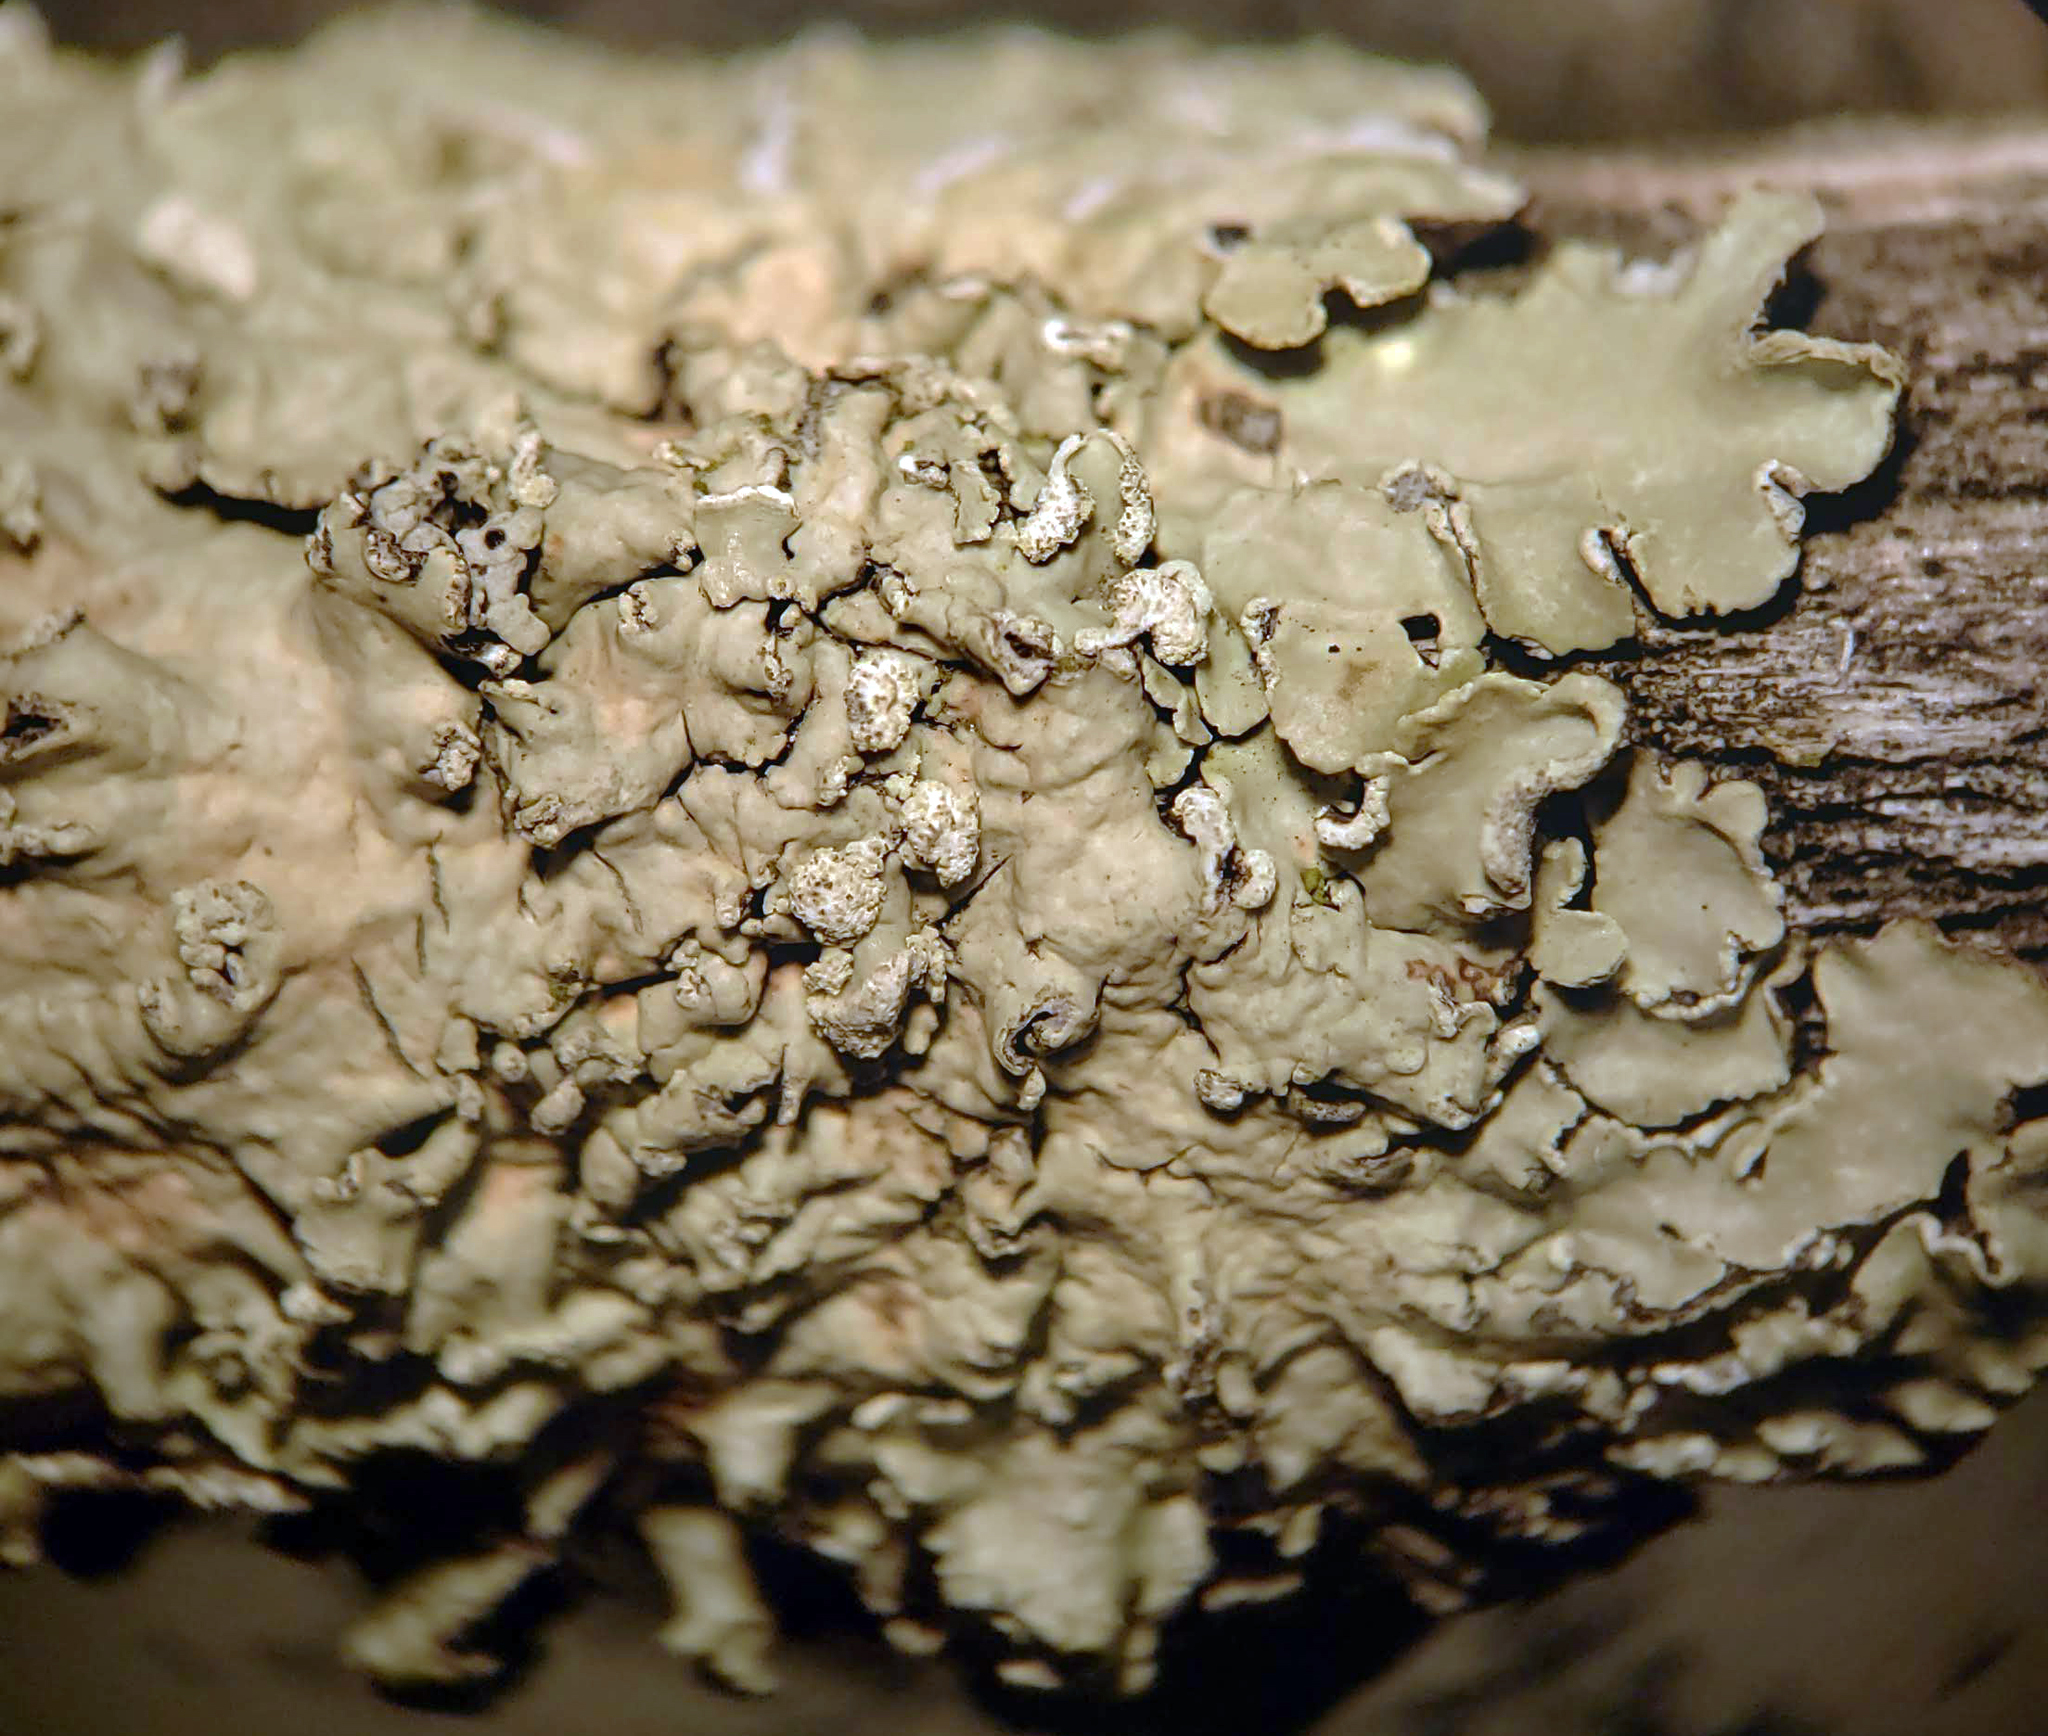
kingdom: Fungi
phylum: Ascomycota
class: Lecanoromycetes
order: Lecanorales
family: Parmeliaceae
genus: Flavopunctelia
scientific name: Flavopunctelia soredica
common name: Powder-edged speckled greenshield
